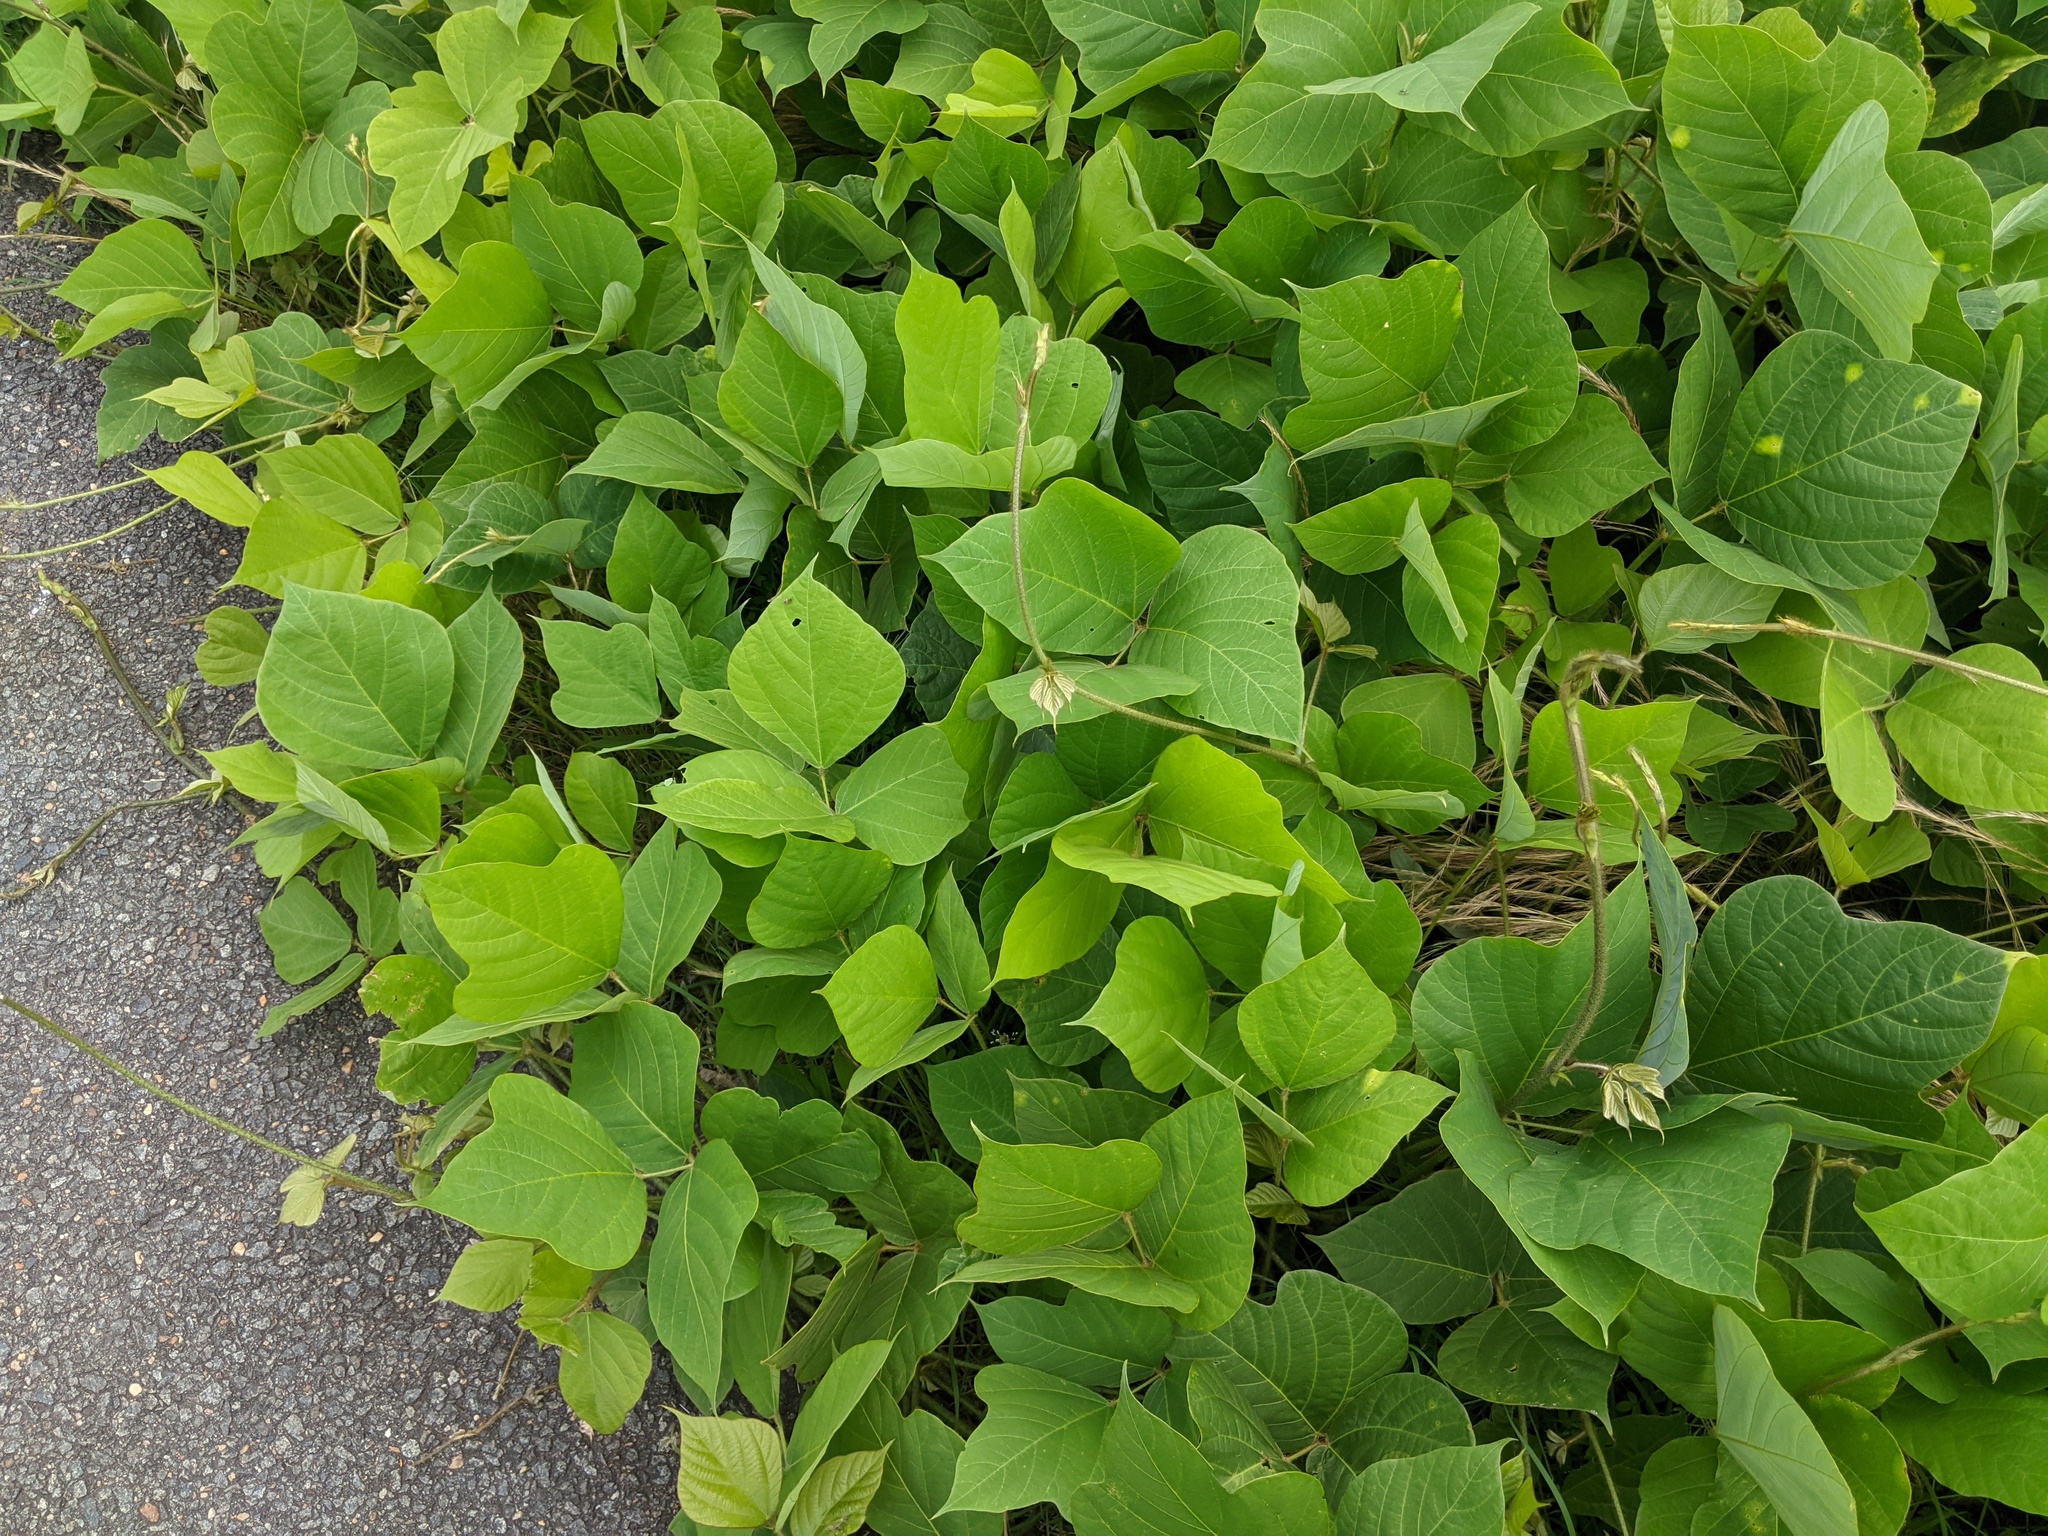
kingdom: Plantae
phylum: Tracheophyta
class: Magnoliopsida
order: Fabales
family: Fabaceae
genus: Pueraria
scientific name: Pueraria montana
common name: Kudzu
